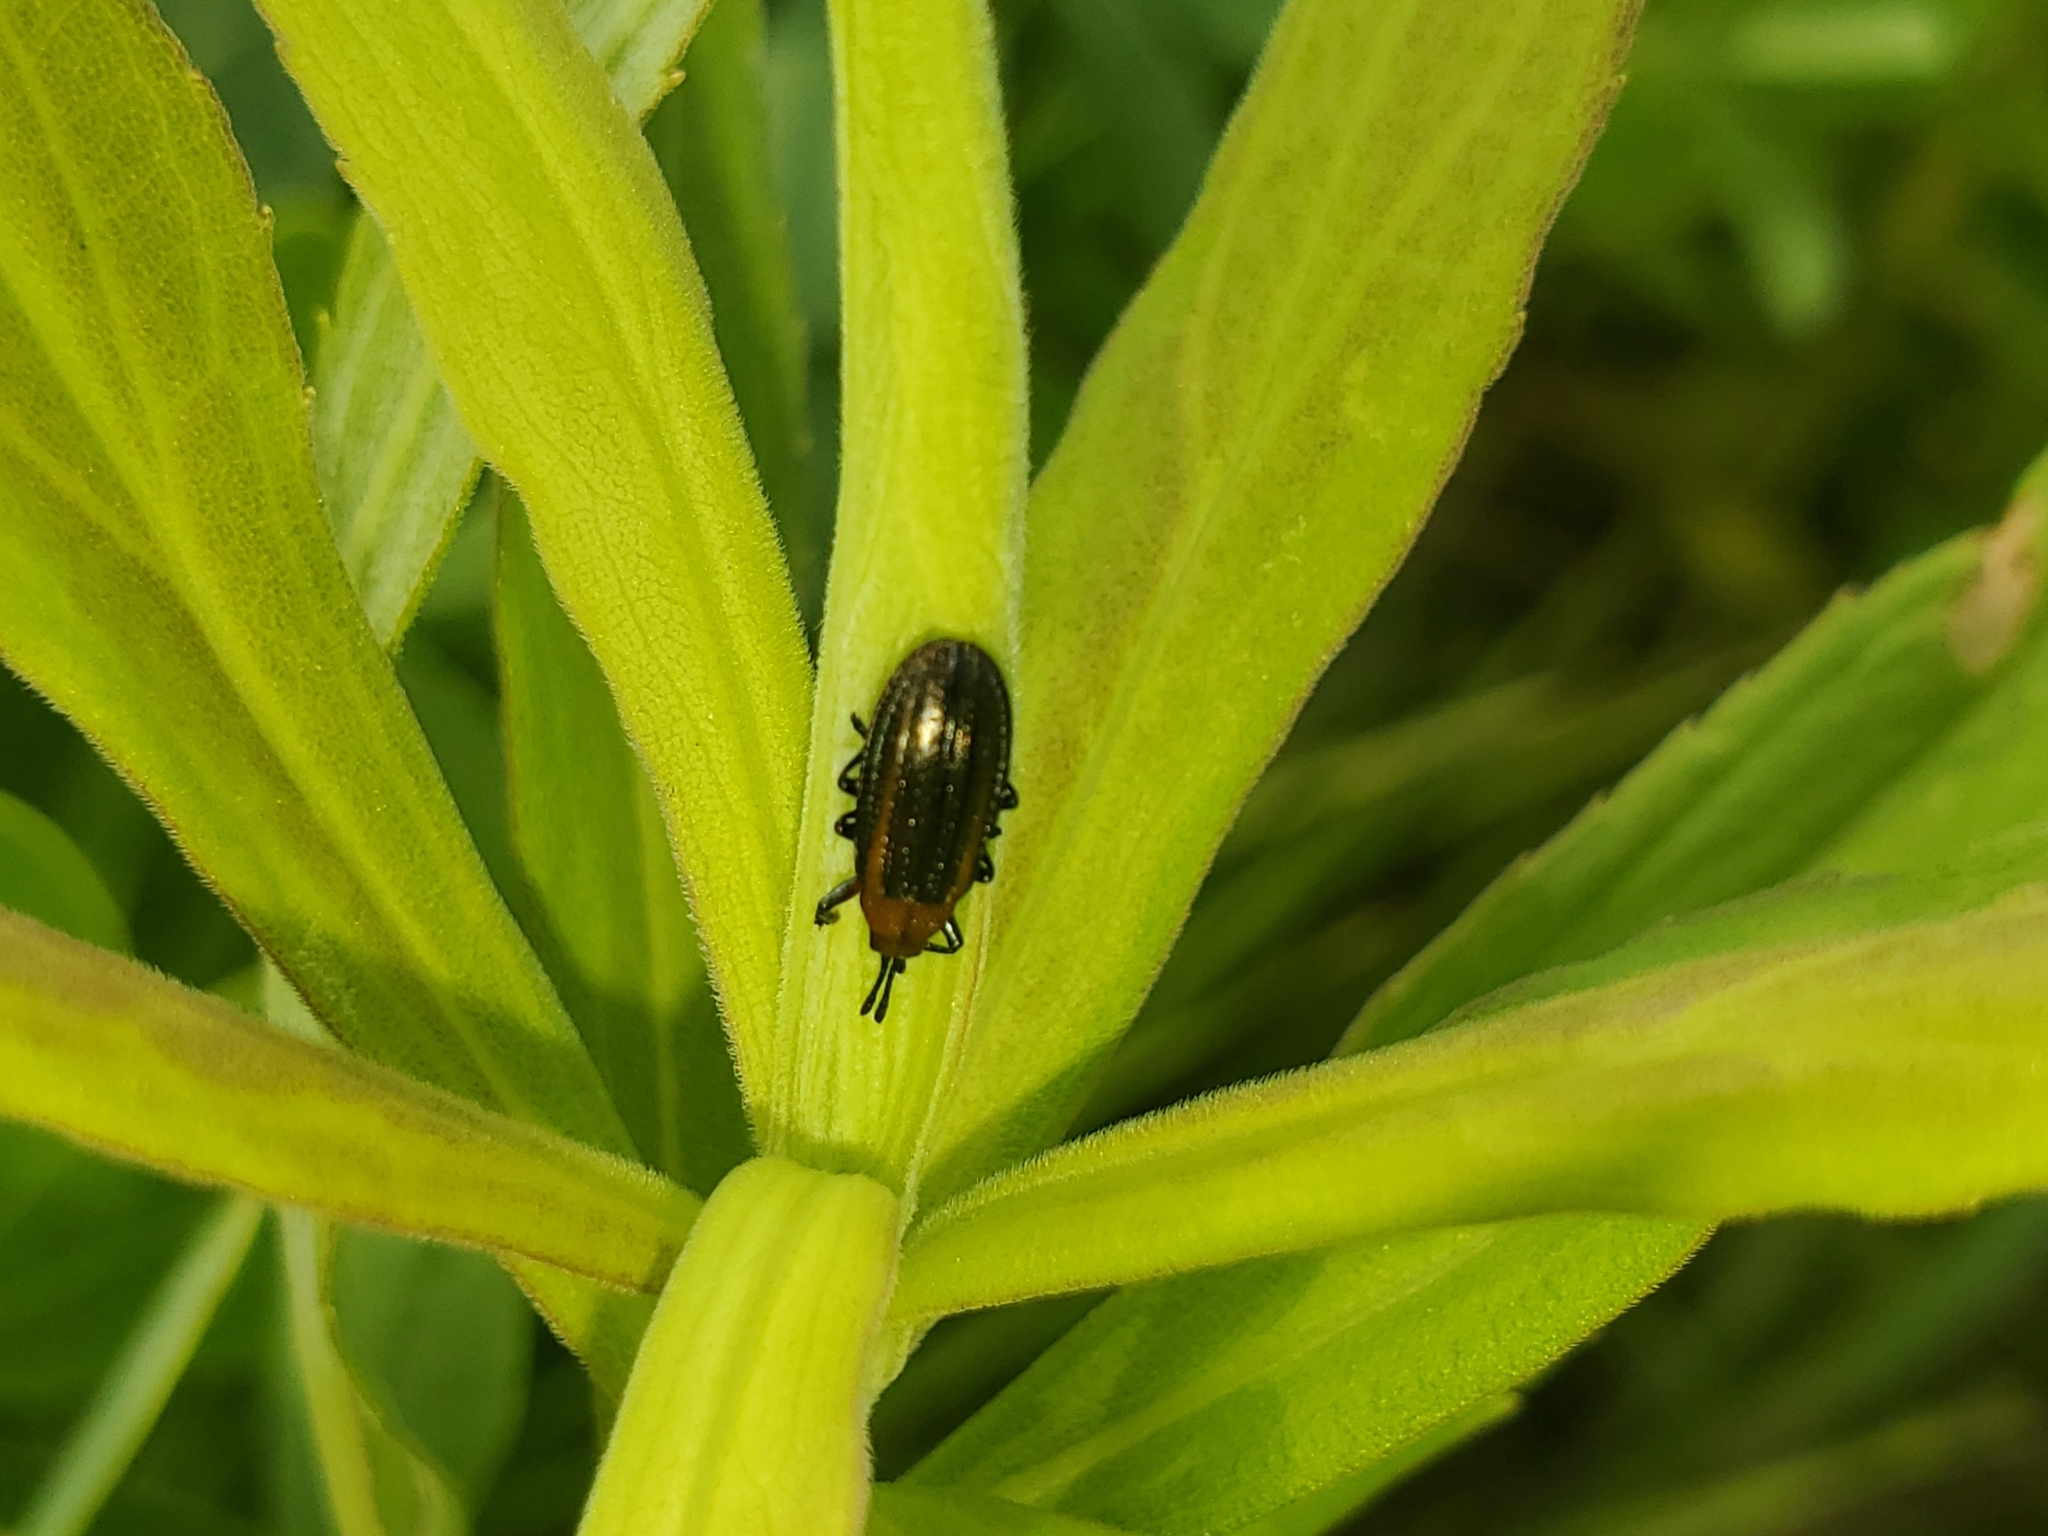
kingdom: Animalia
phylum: Arthropoda
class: Insecta
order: Coleoptera
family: Chrysomelidae
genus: Microrhopala
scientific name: Microrhopala vittata
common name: Goldenrod leaf miner beetle
